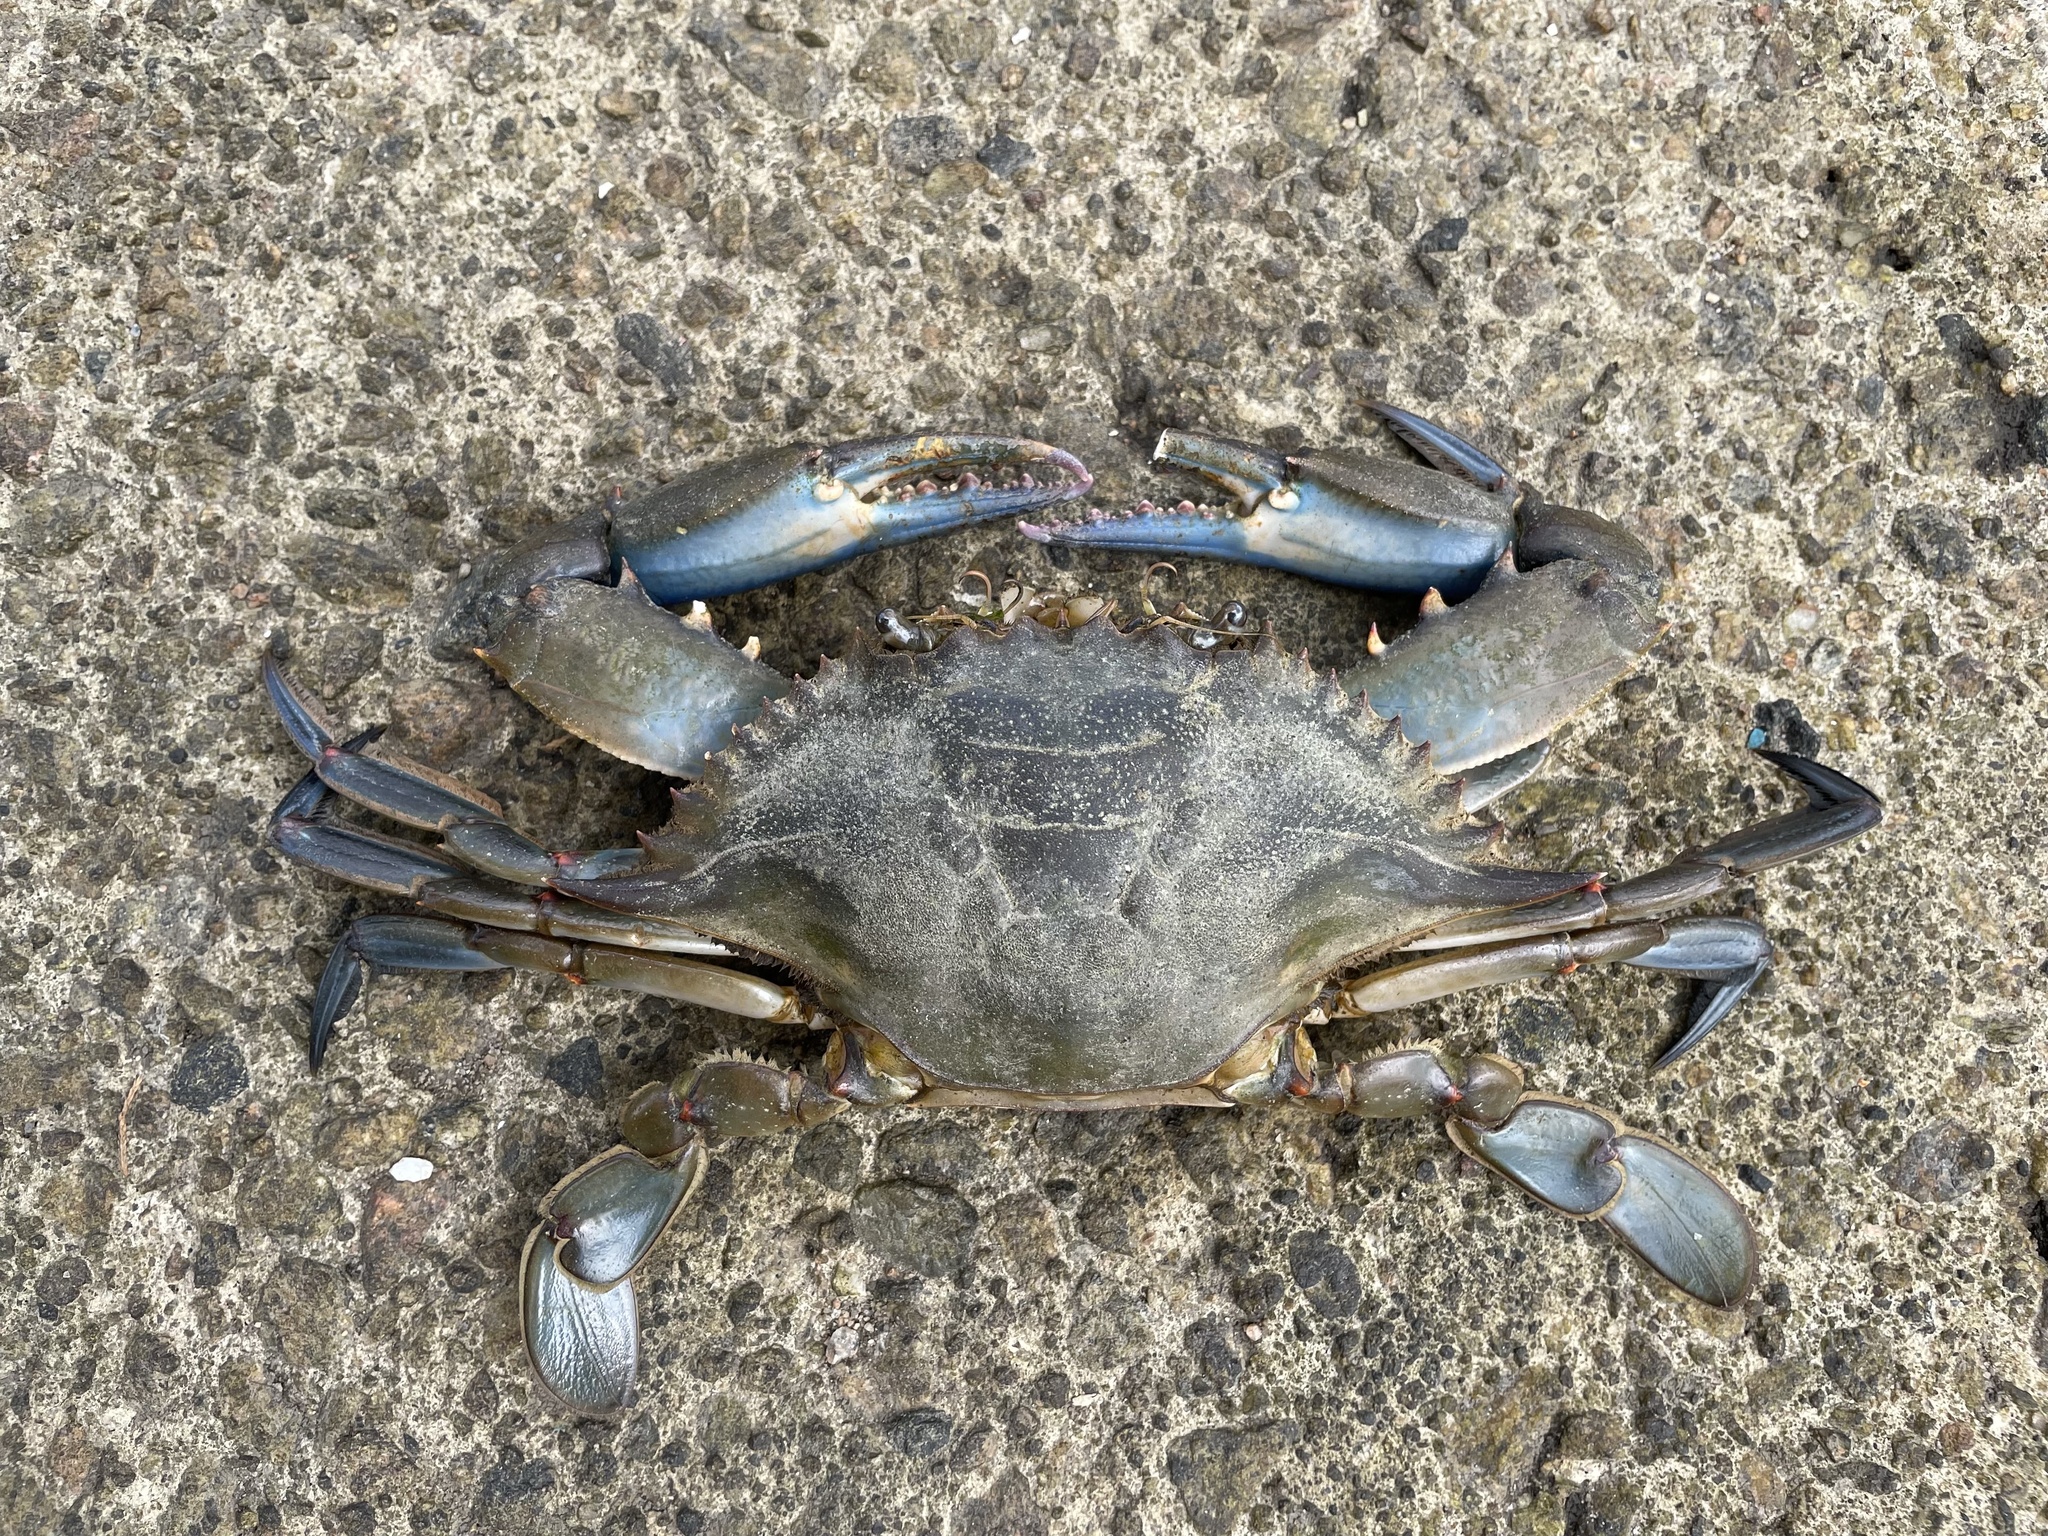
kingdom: Animalia
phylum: Arthropoda
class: Malacostraca
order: Decapoda
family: Portunidae
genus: Callinectes
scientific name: Callinectes sapidus
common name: Blue crab
